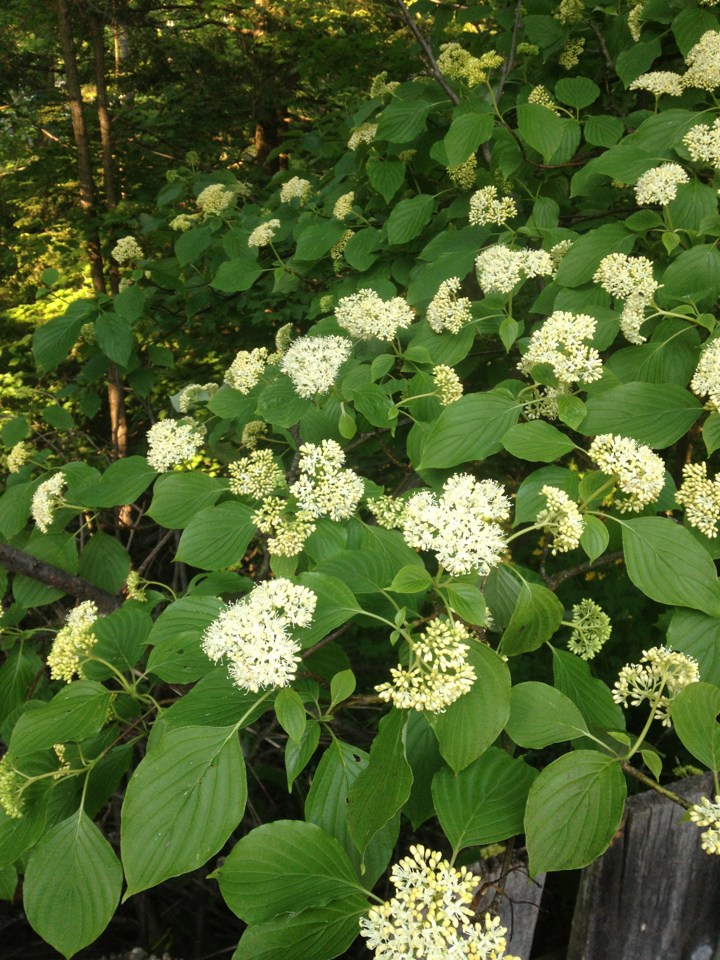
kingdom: Plantae
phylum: Tracheophyta
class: Magnoliopsida
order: Cornales
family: Cornaceae
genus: Cornus
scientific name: Cornus alternifolia
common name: Pagoda dogwood
